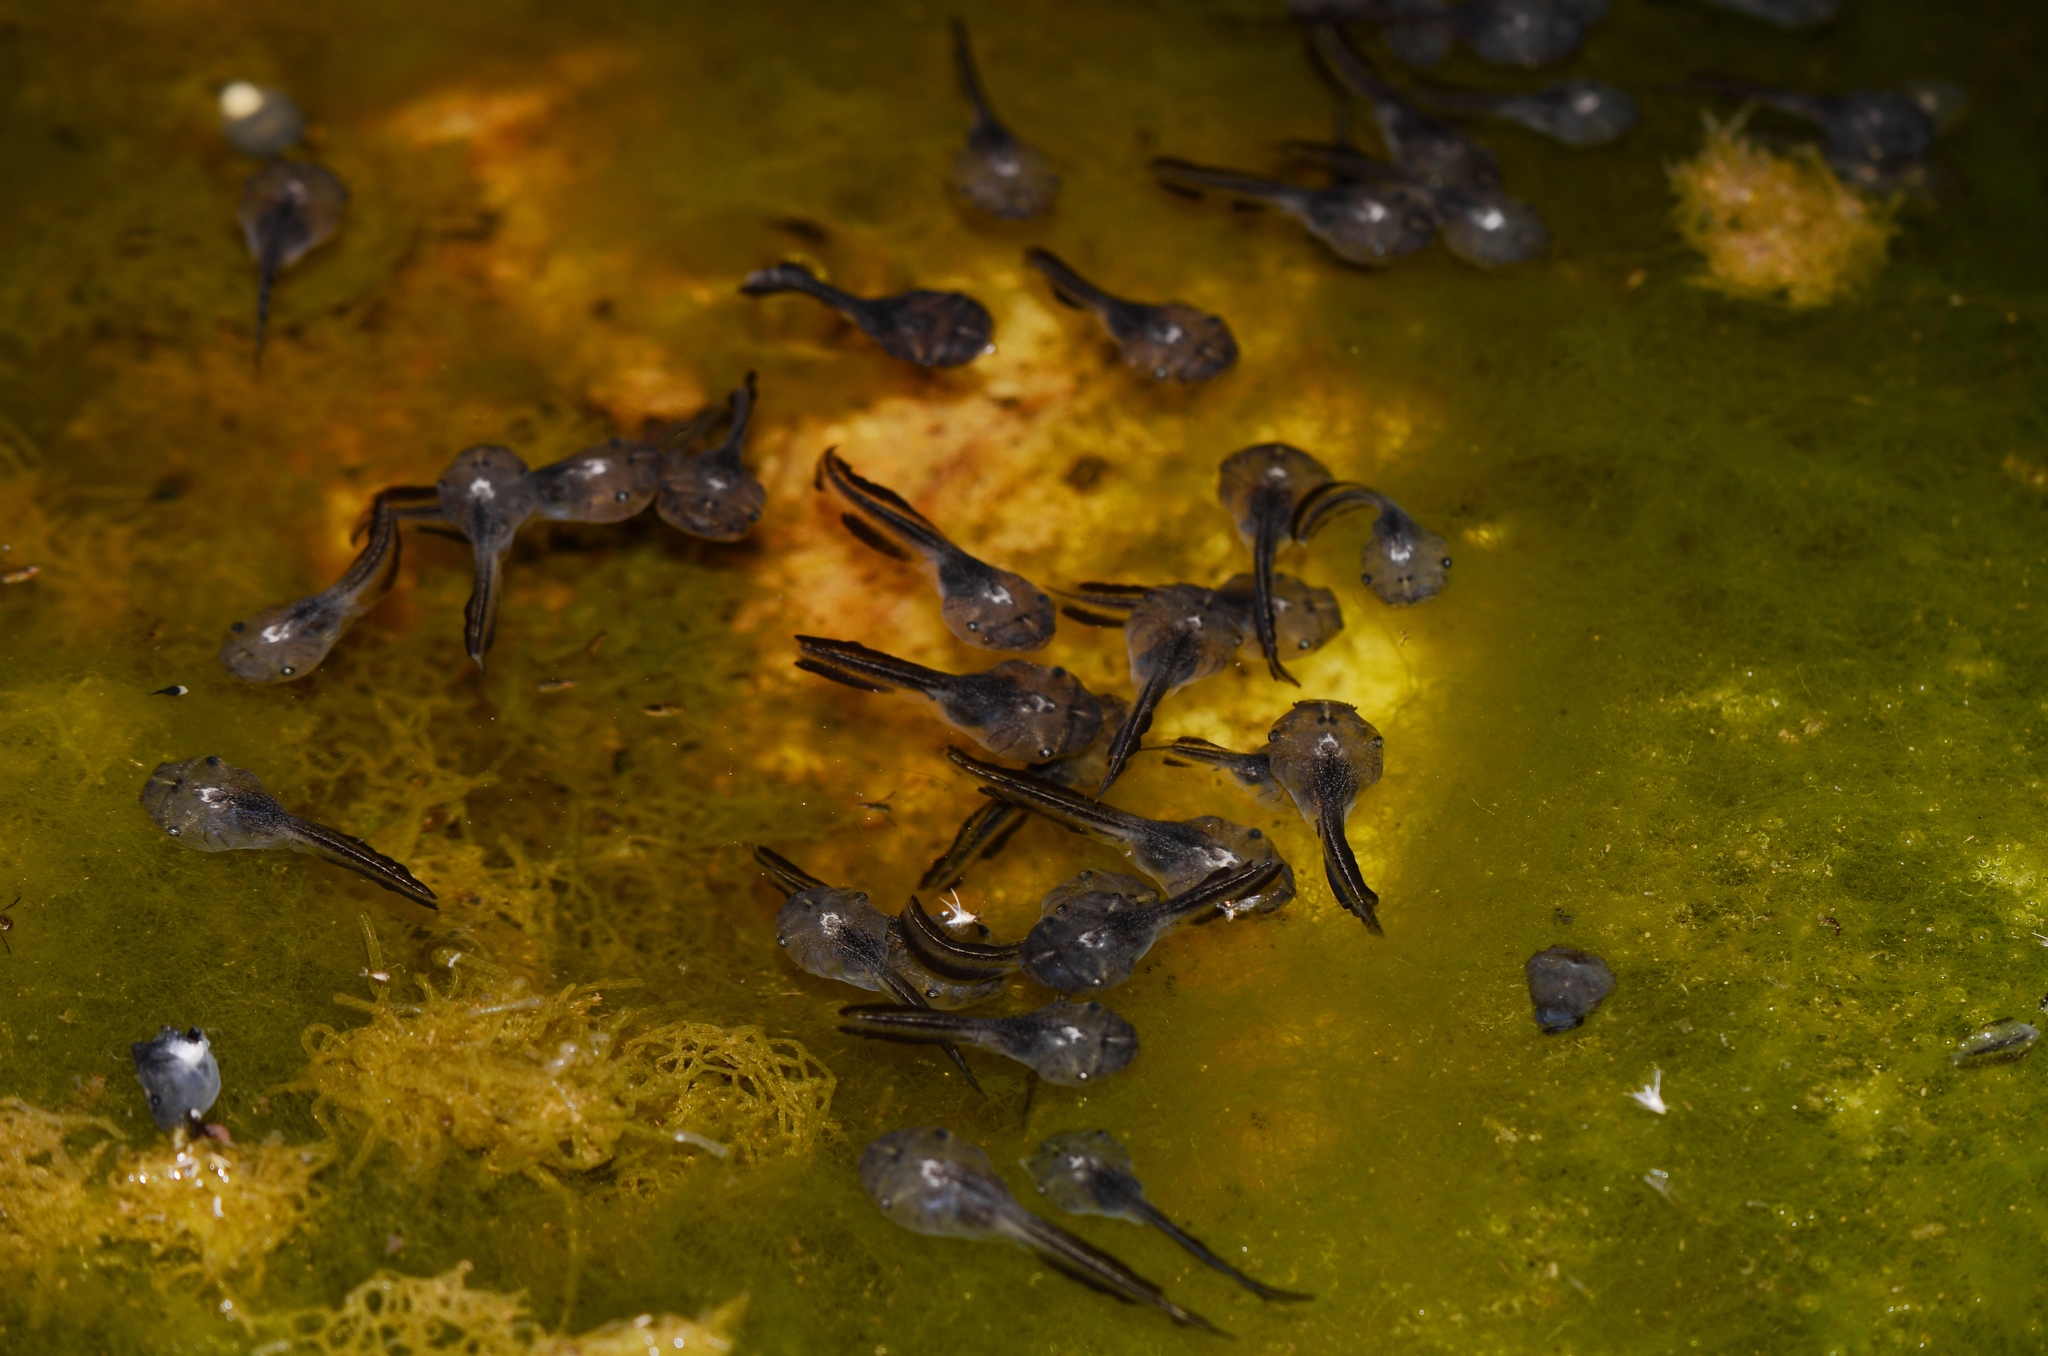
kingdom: Animalia
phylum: Chordata
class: Amphibia
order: Anura
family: Microhylidae
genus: Phrynomantis
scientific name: Phrynomantis annectens
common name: Marbled rubber frog
